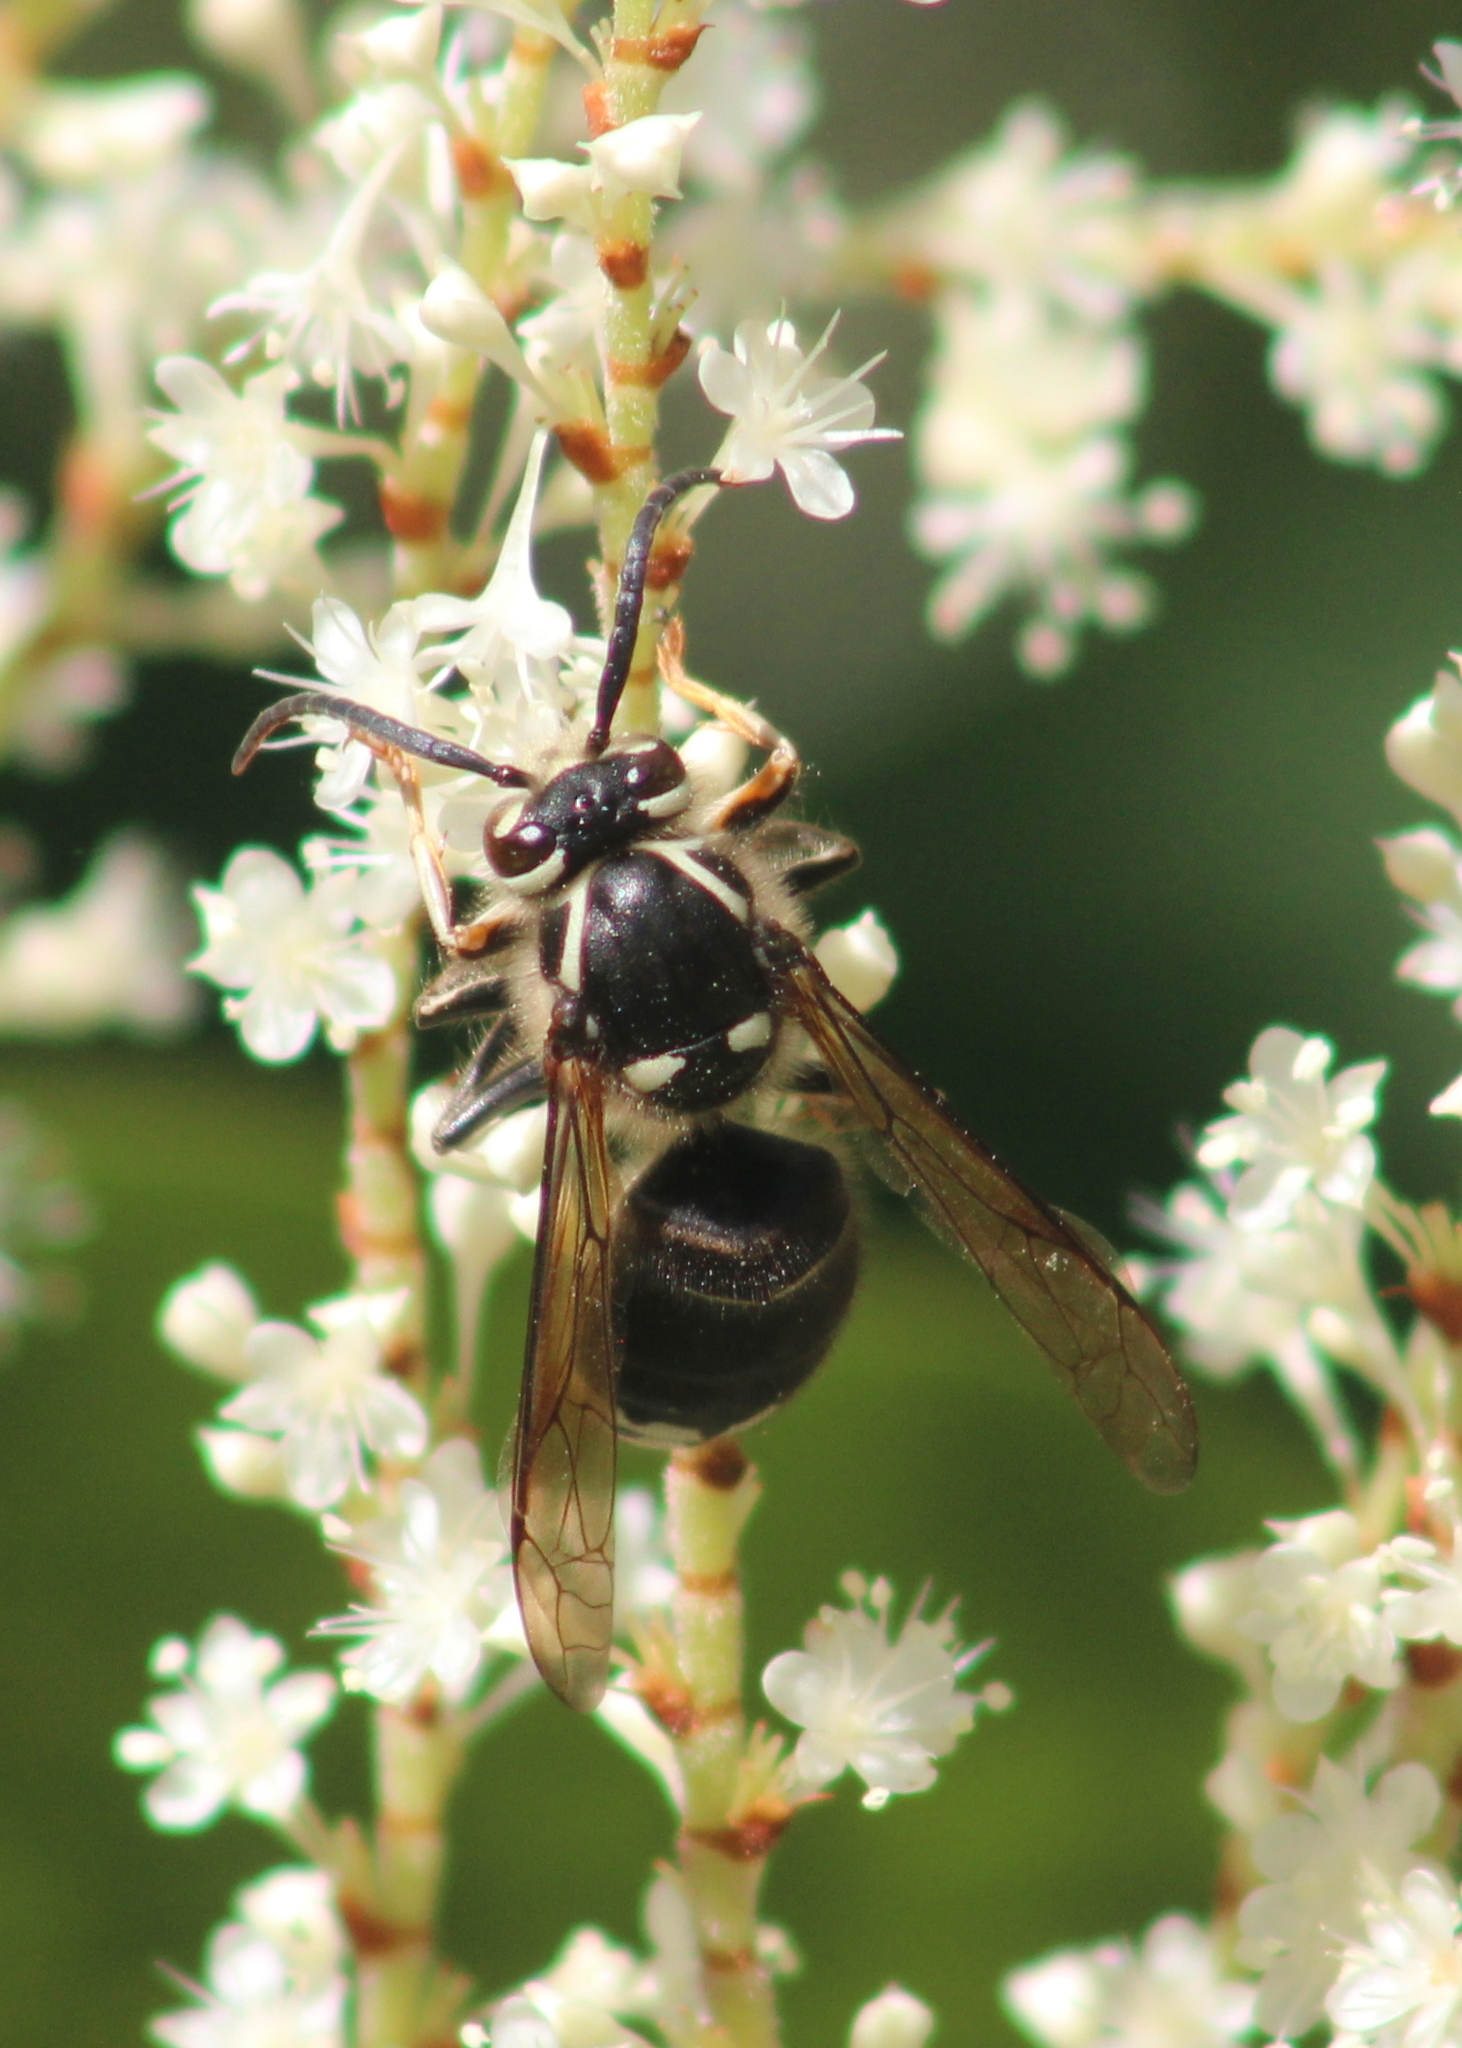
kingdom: Animalia
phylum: Arthropoda
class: Insecta
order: Hymenoptera
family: Vespidae
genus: Dolichovespula
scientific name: Dolichovespula maculata
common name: Bald-faced hornet
